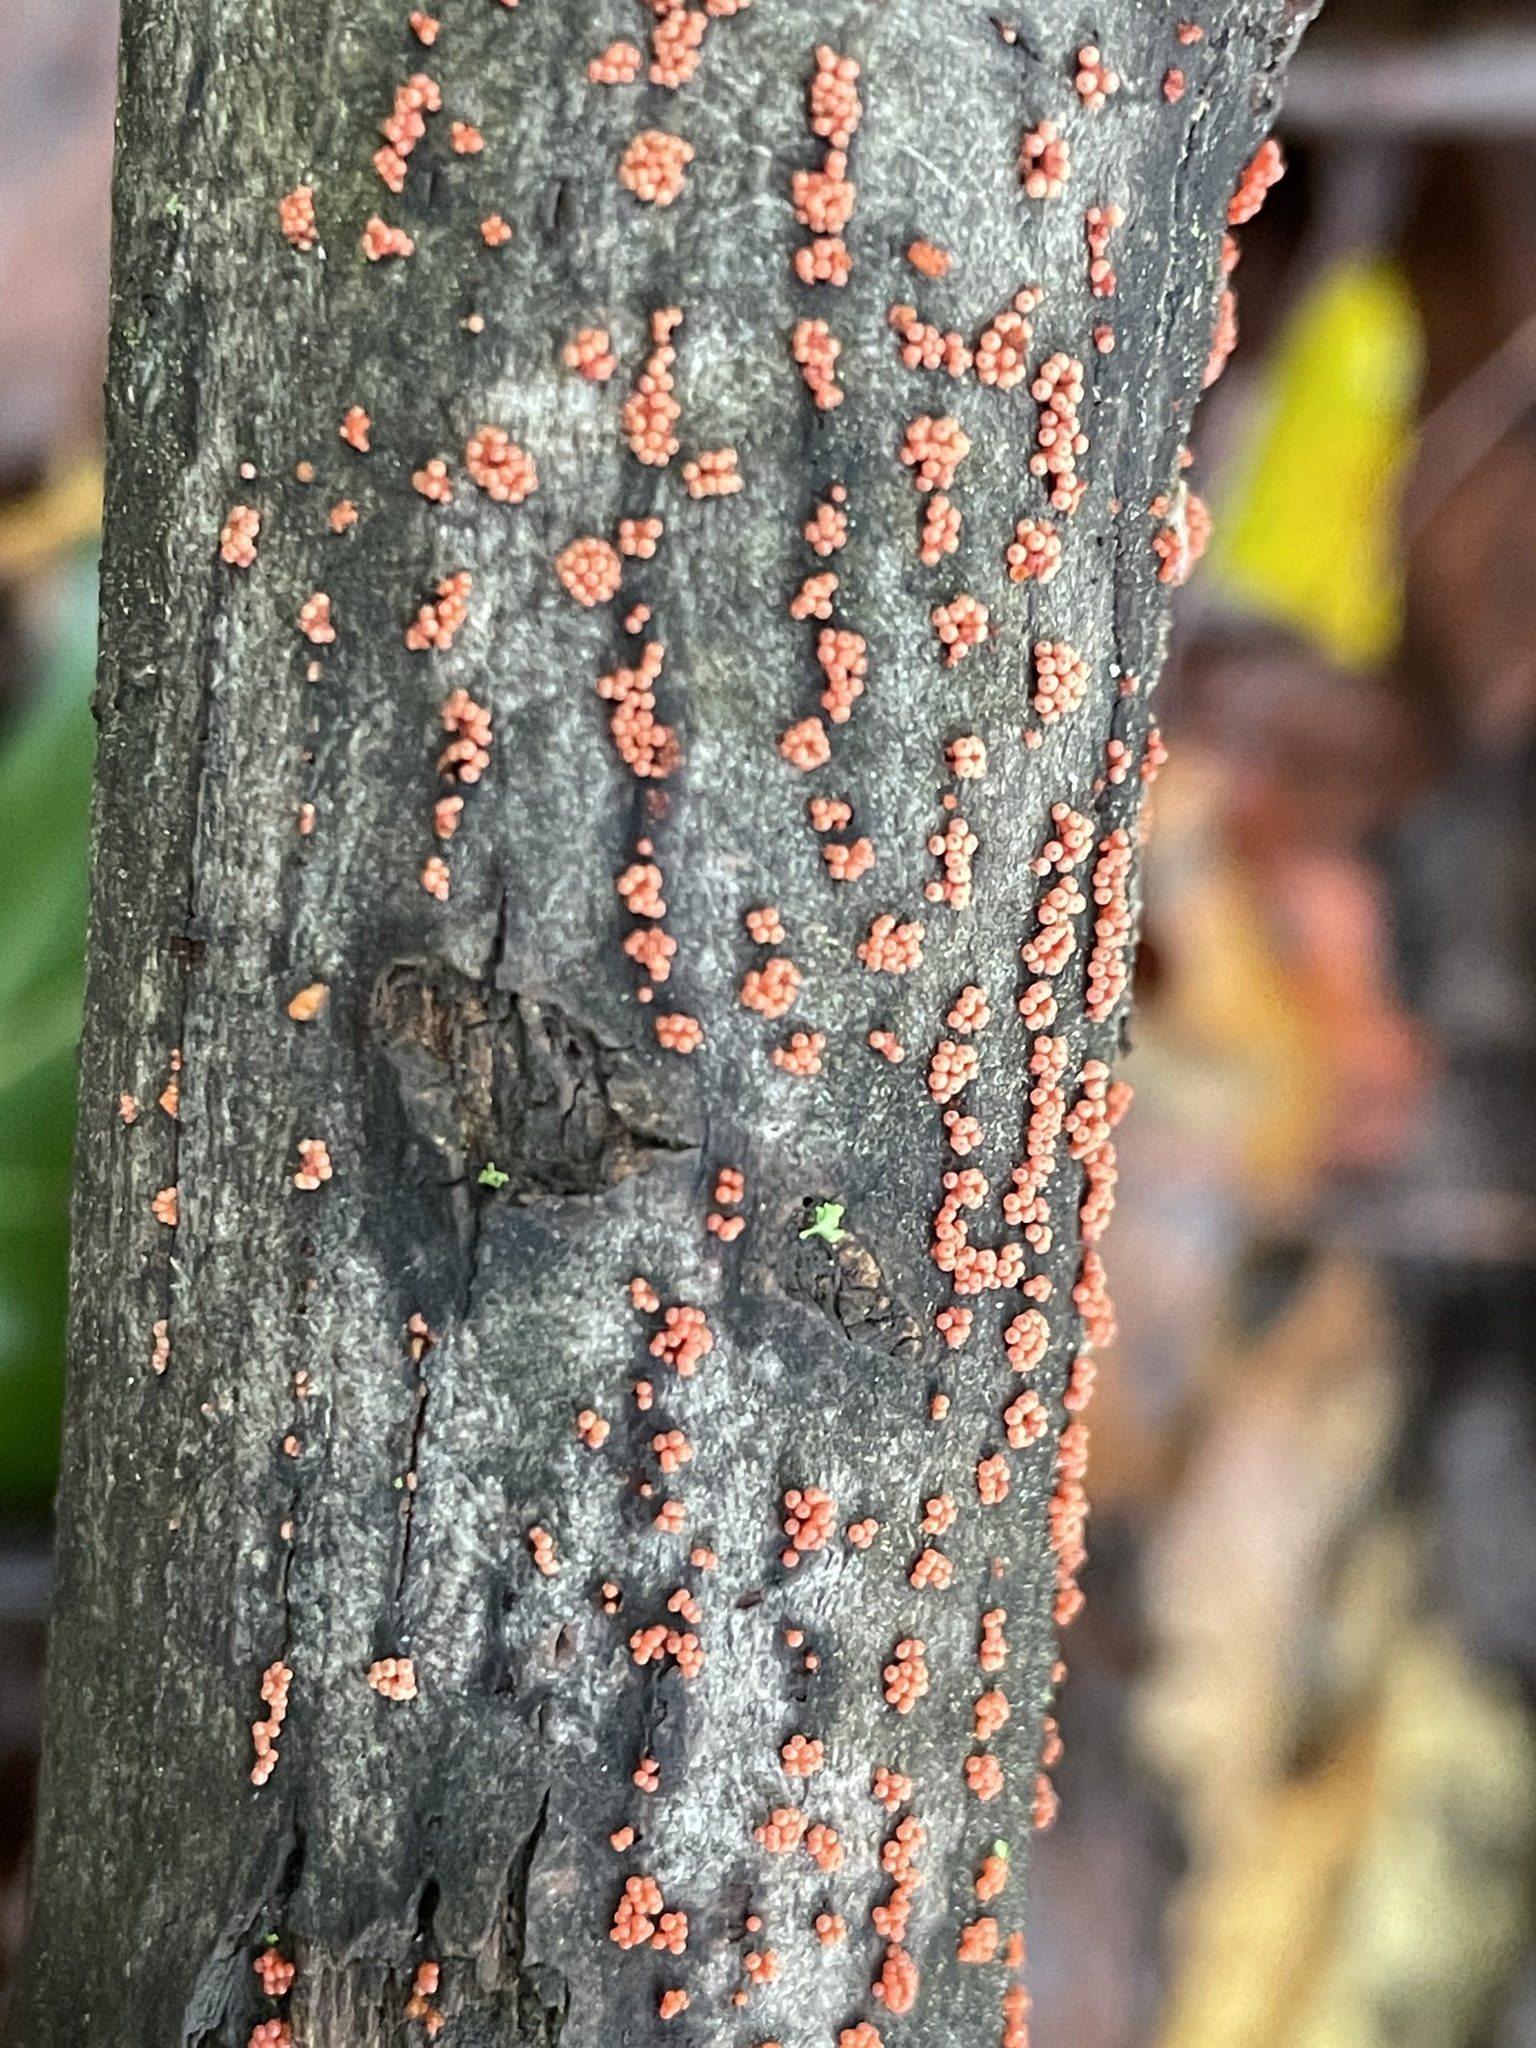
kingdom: Fungi
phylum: Ascomycota
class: Sordariomycetes
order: Hypocreales
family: Nectriaceae
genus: Nectria
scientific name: Nectria cinnabarina
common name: Coral spot
